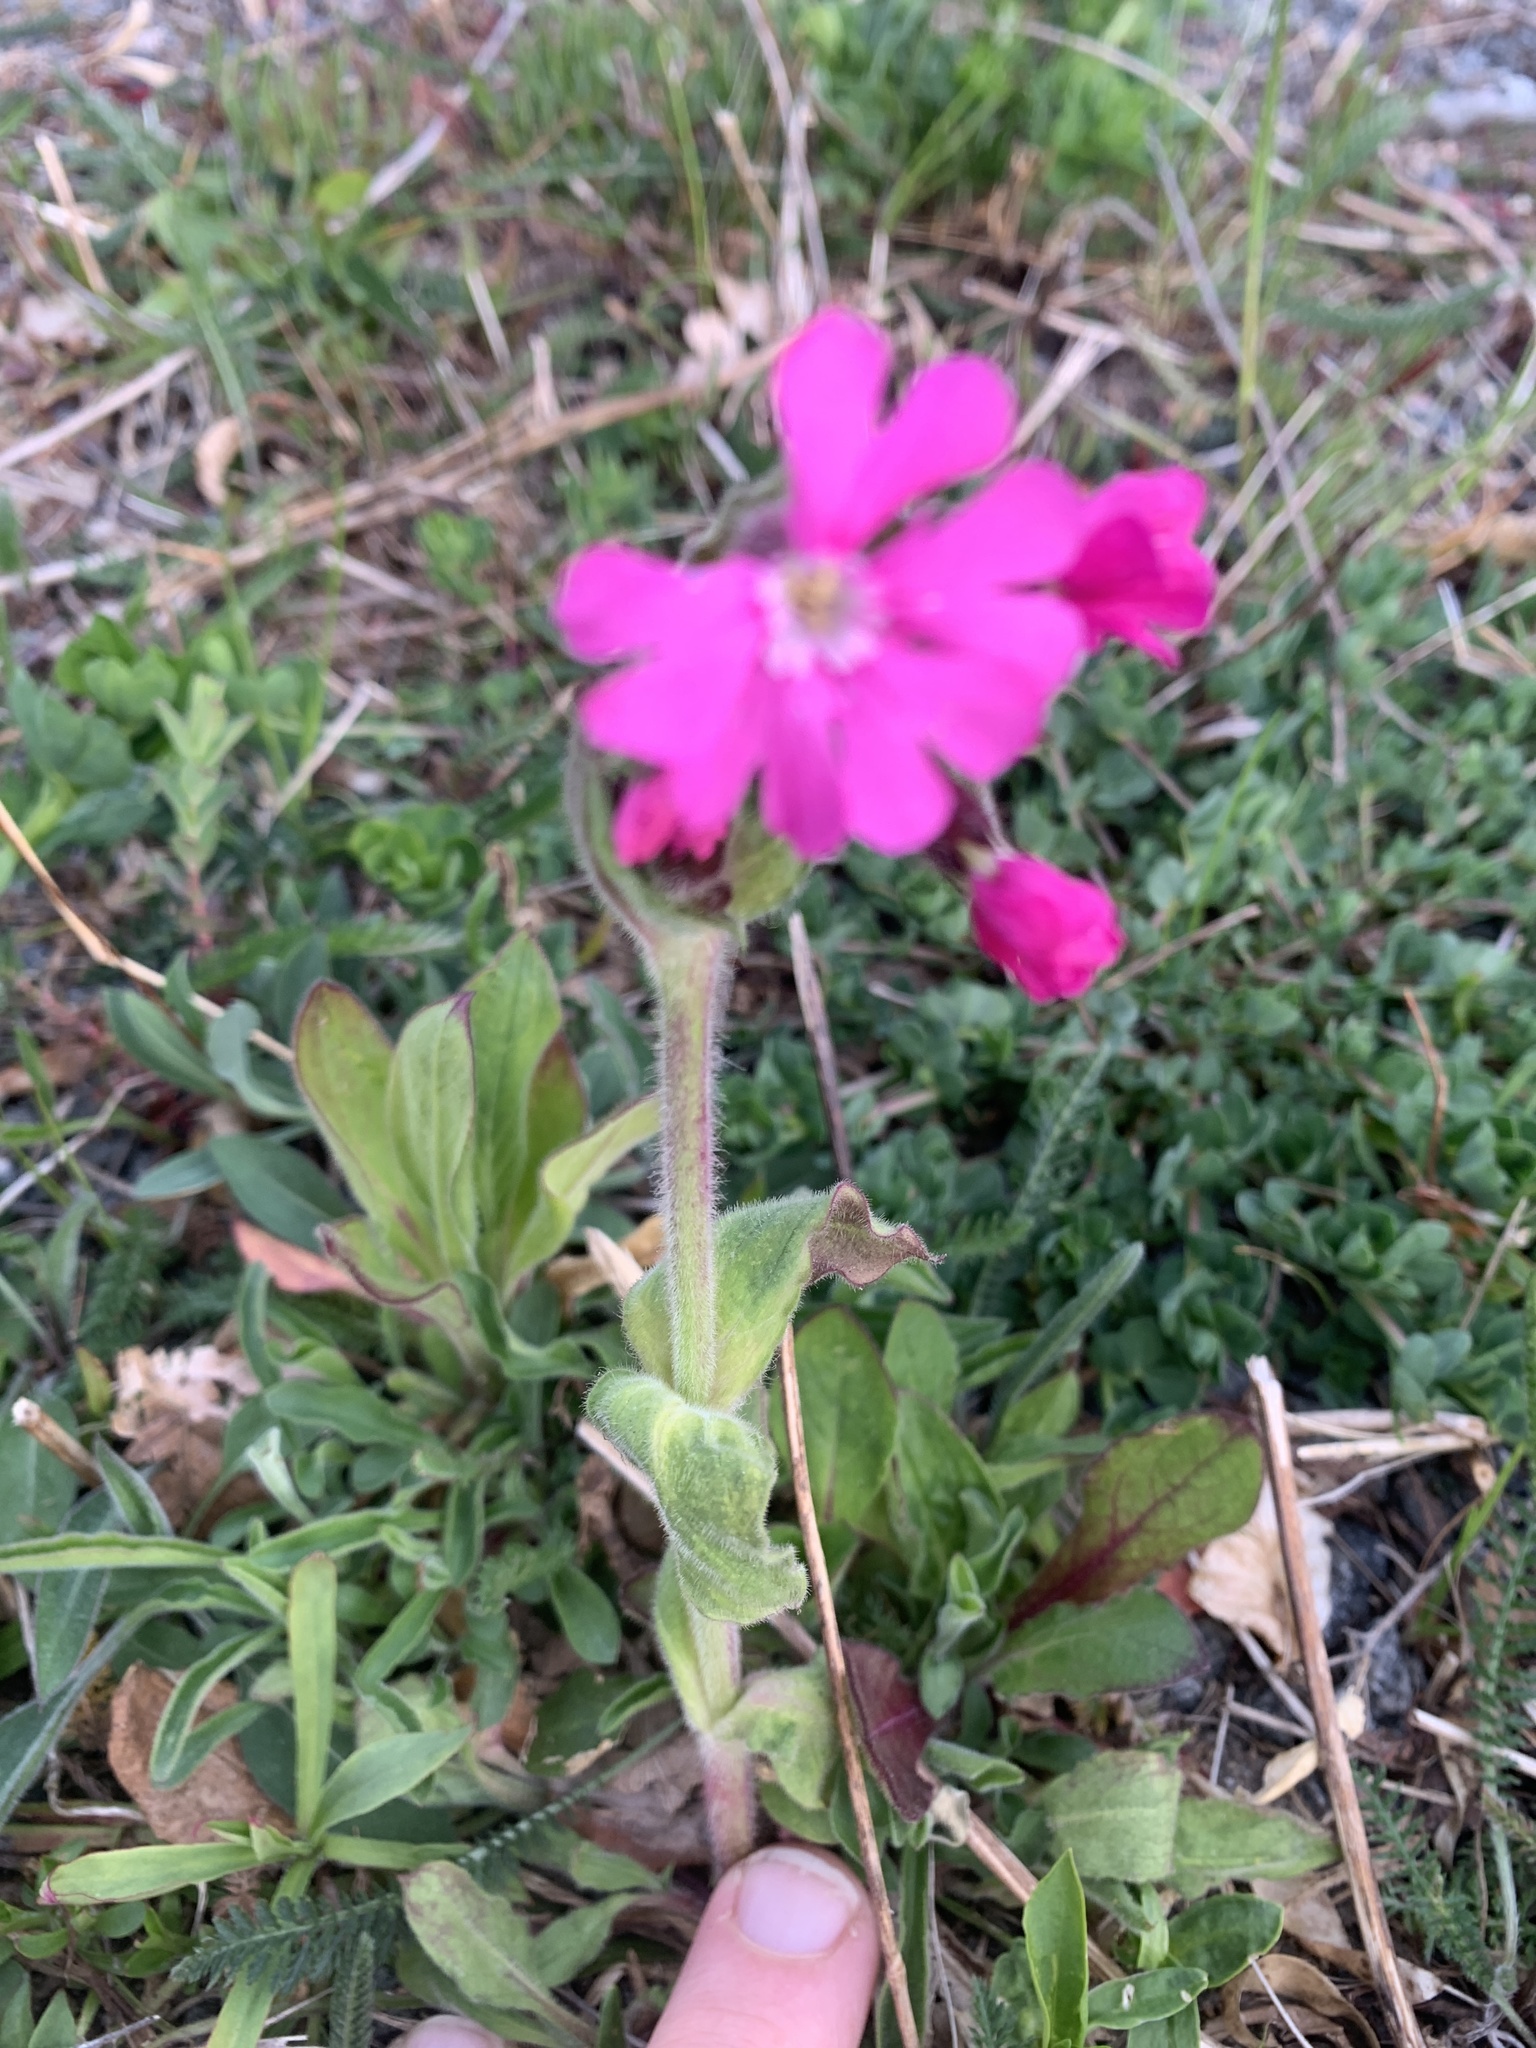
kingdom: Plantae
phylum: Tracheophyta
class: Magnoliopsida
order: Caryophyllales
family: Caryophyllaceae
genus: Silene
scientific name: Silene dioica
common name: Red campion
